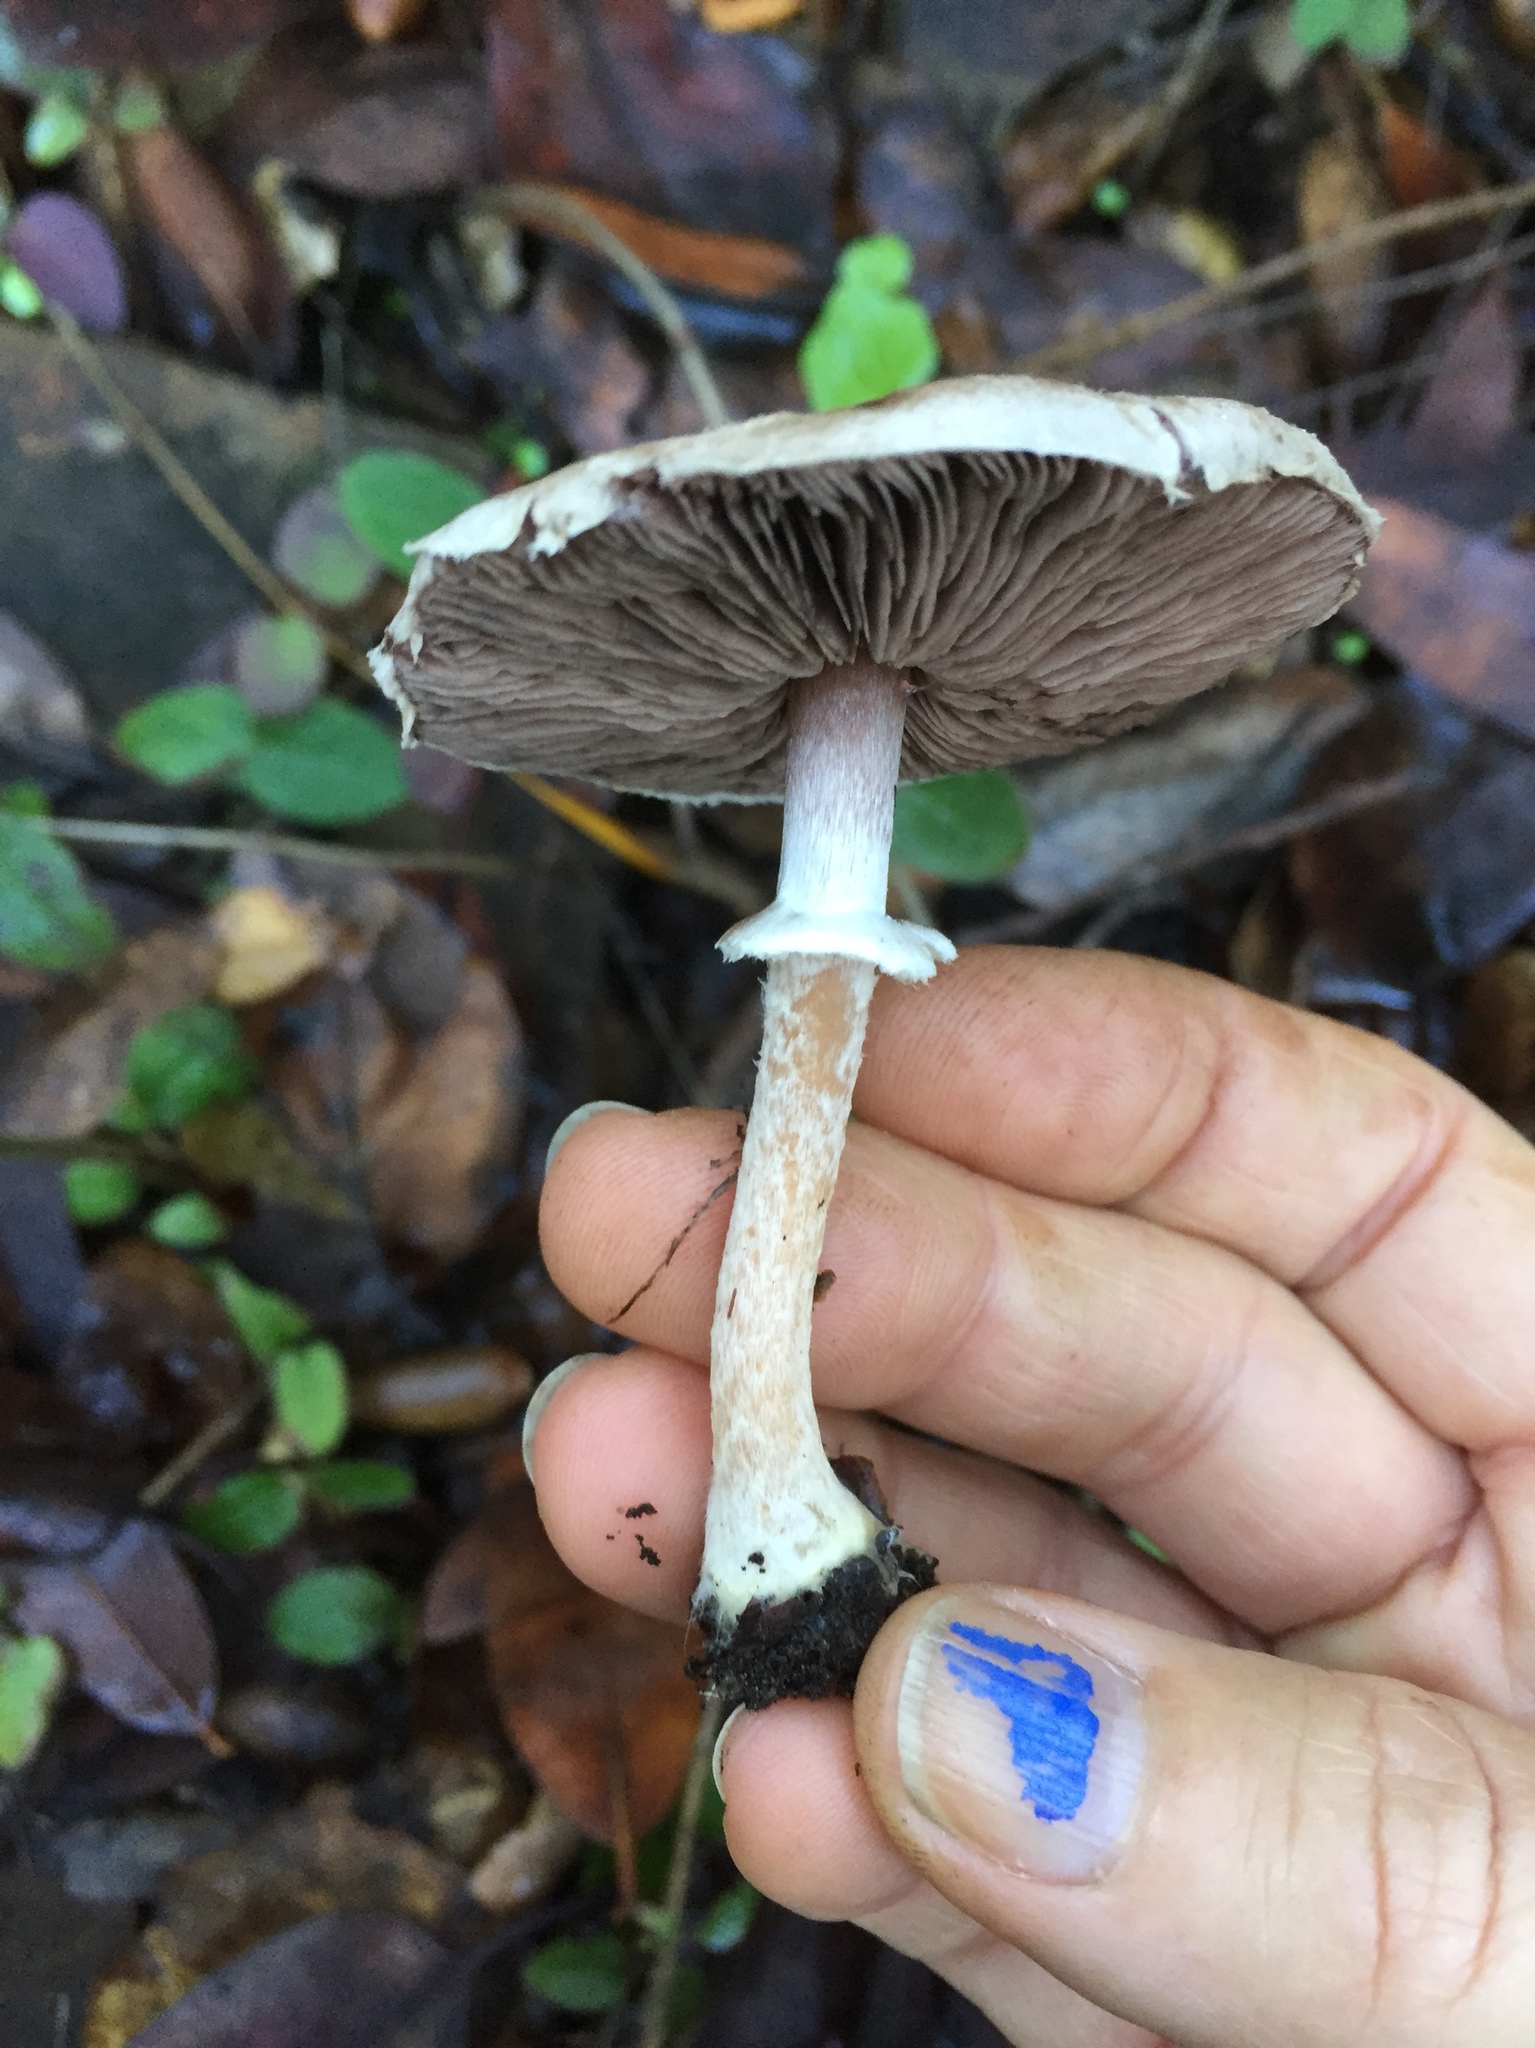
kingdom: Fungi
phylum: Basidiomycota
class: Agaricomycetes
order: Agaricales
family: Agaricaceae
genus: Agaricus
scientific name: Agaricus subrutilescens
